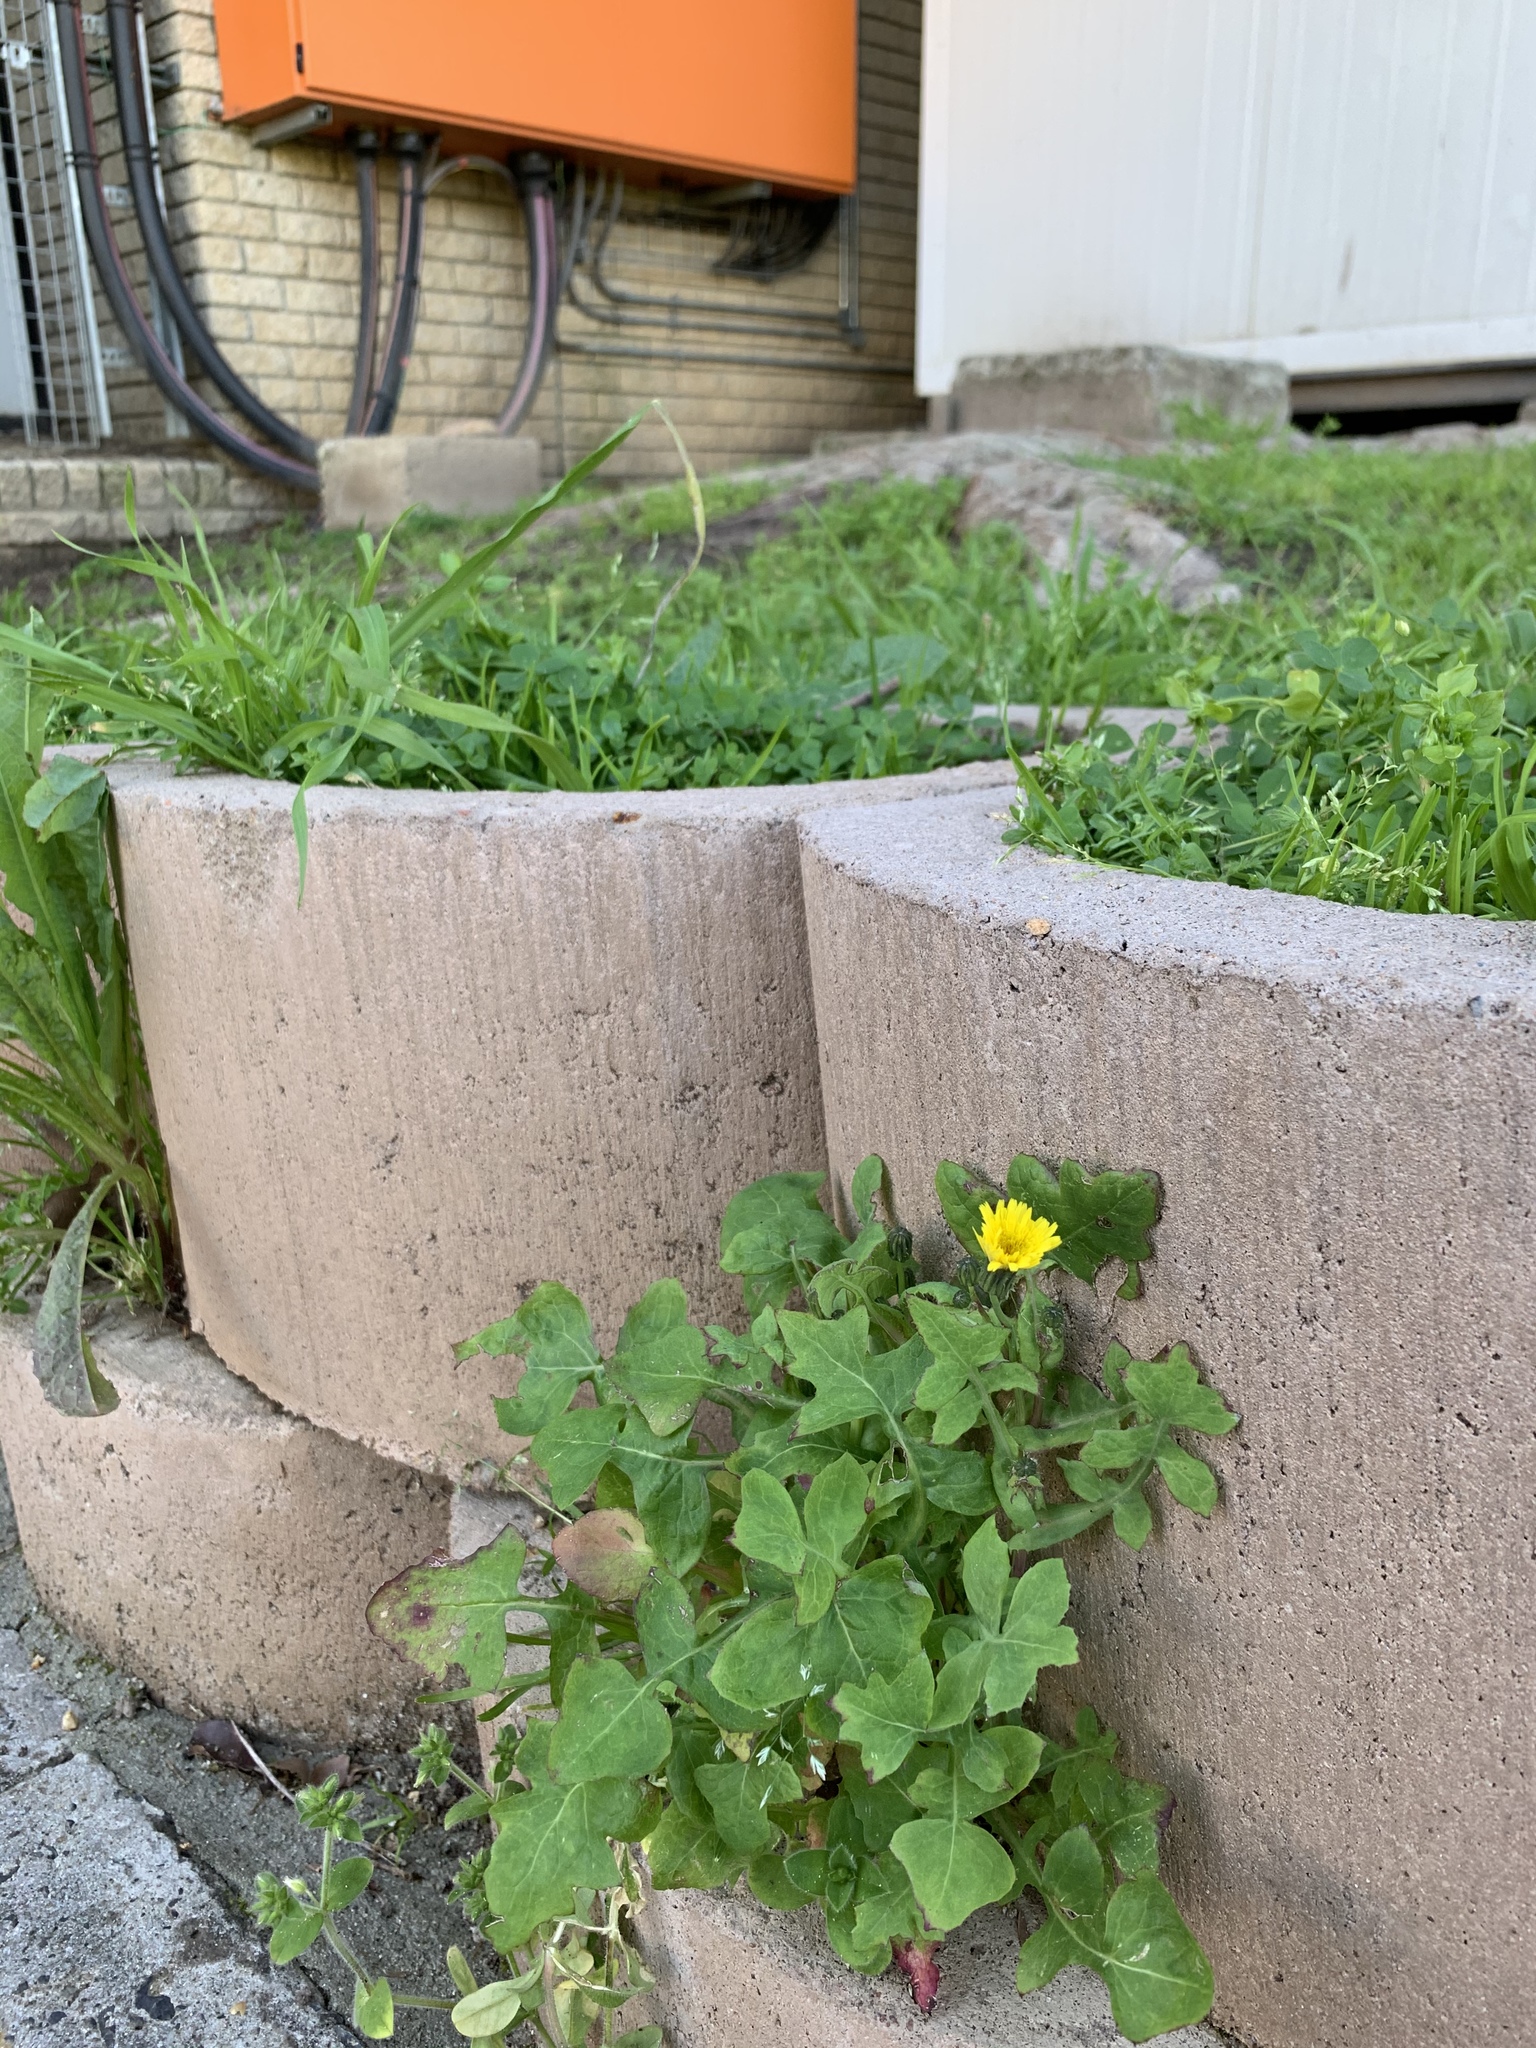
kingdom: Plantae
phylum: Tracheophyta
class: Magnoliopsida
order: Asterales
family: Asteraceae
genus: Sonchus
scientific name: Sonchus oleraceus
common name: Common sowthistle
